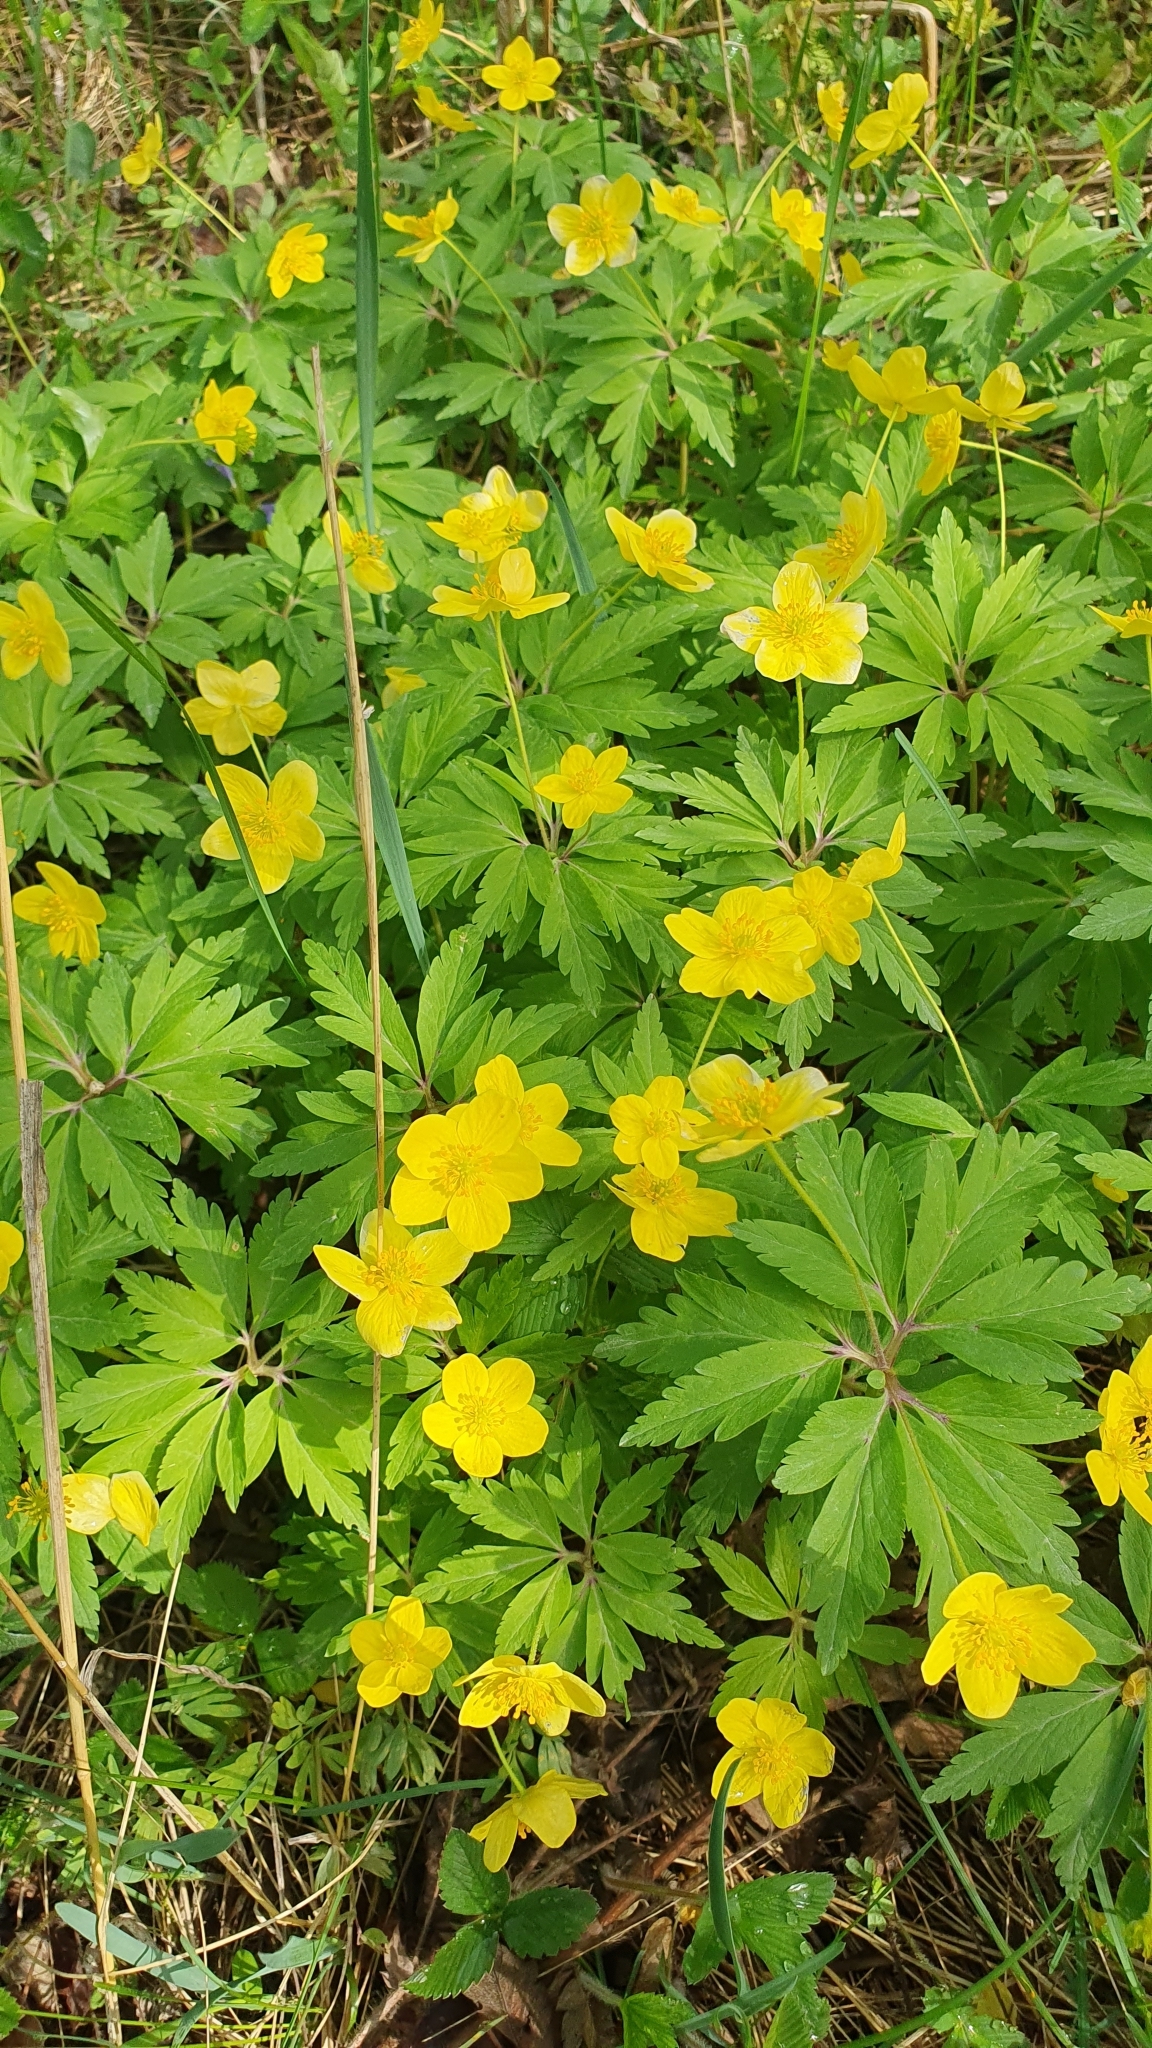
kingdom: Plantae
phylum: Tracheophyta
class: Magnoliopsida
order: Ranunculales
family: Ranunculaceae
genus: Anemone
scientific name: Anemone ranunculoides
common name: Yellow anemone
